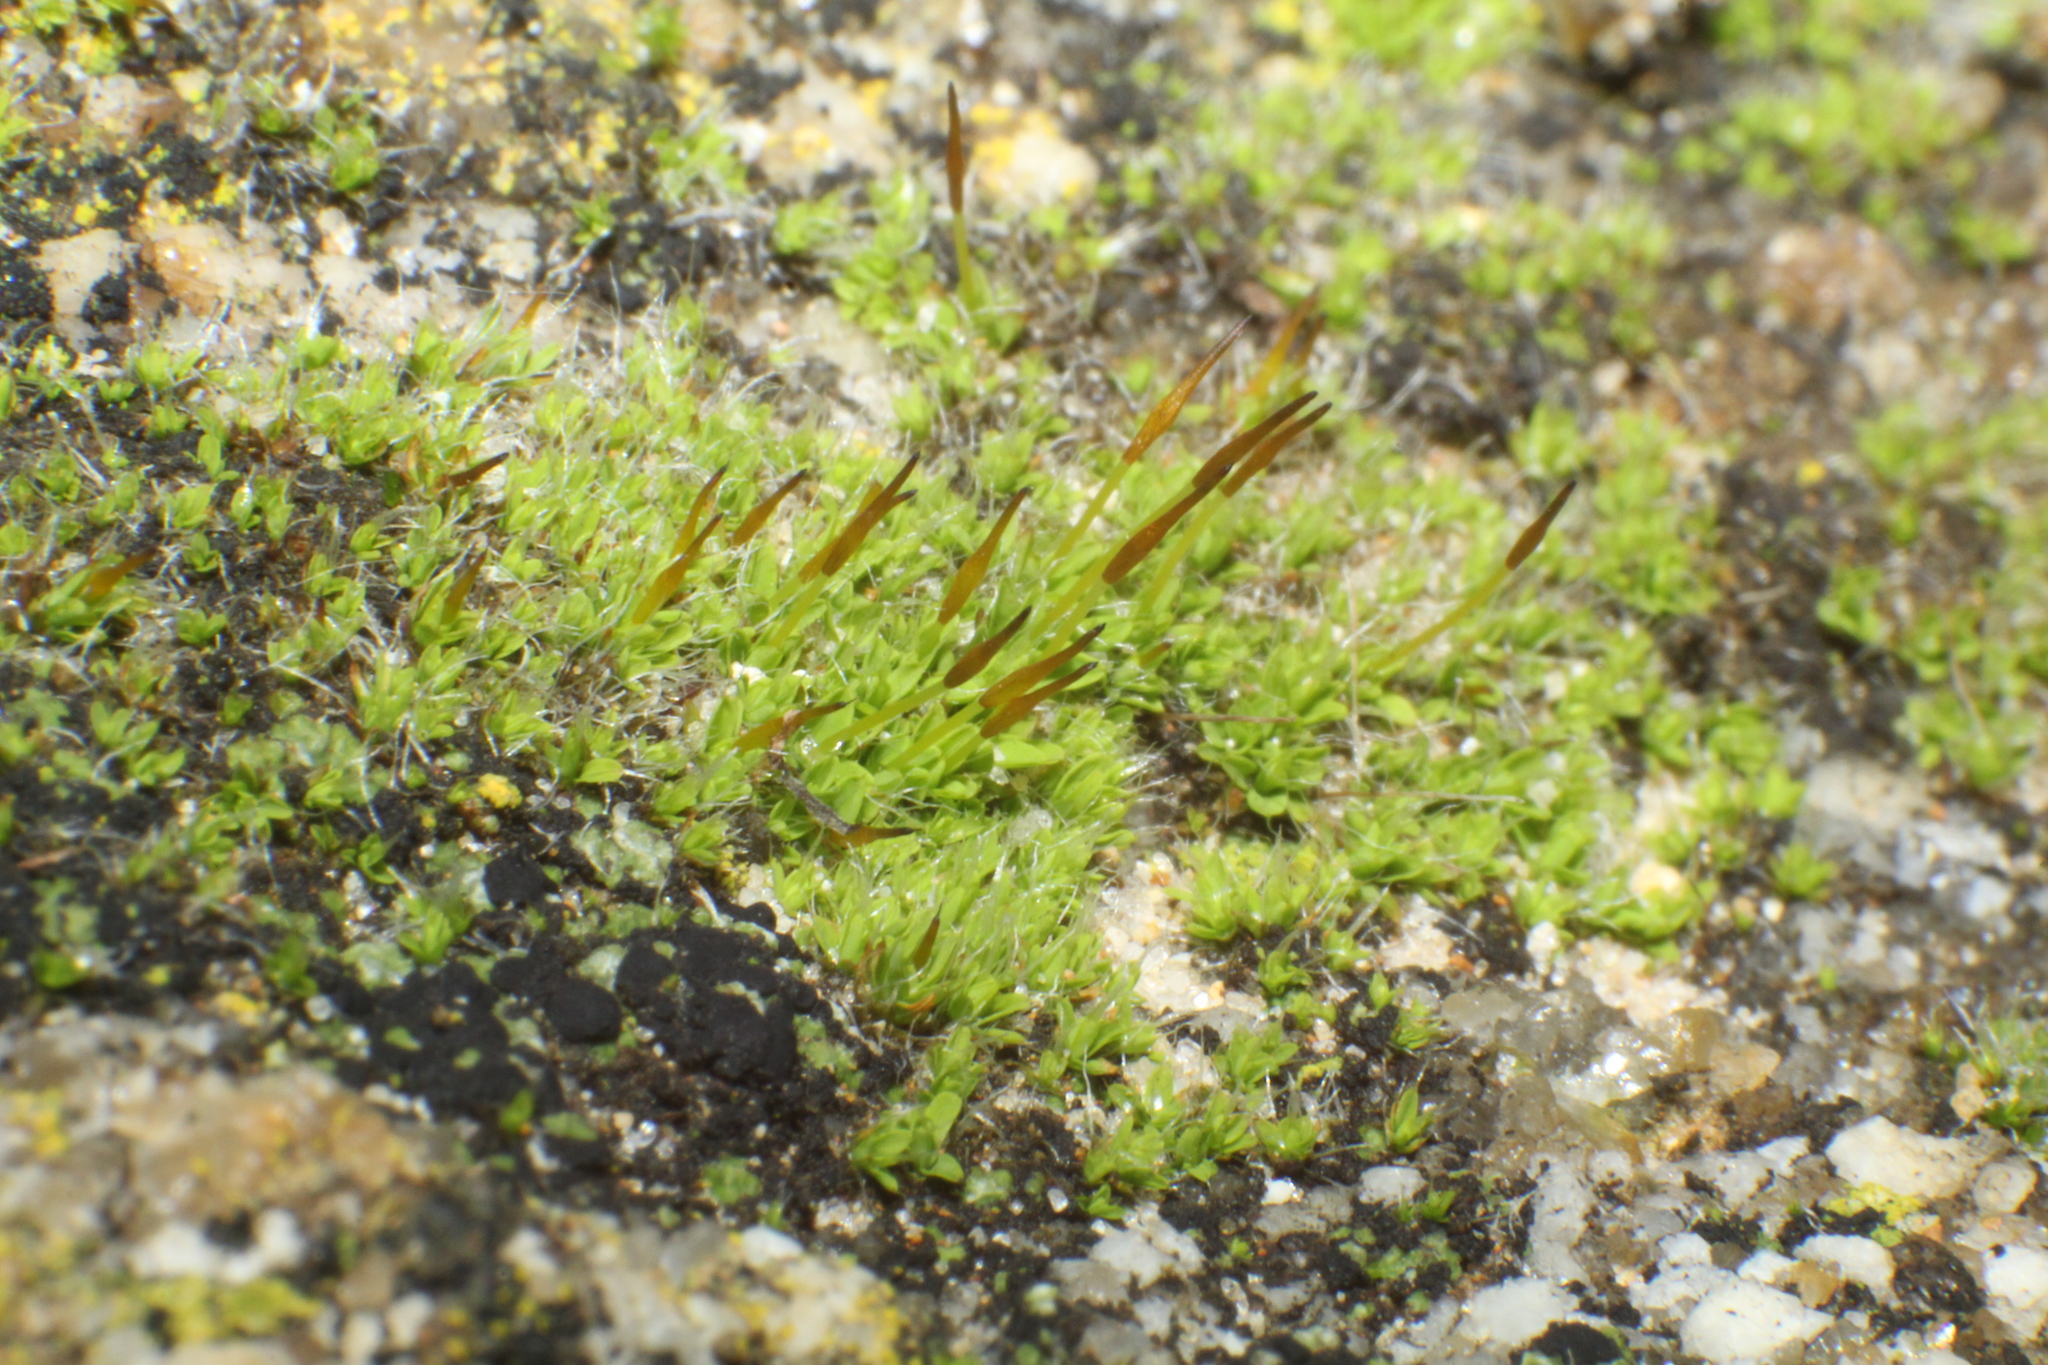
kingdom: Plantae
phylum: Bryophyta
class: Bryopsida
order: Pottiales
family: Pottiaceae
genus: Tortula
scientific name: Tortula muralis
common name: Wall screw-moss
